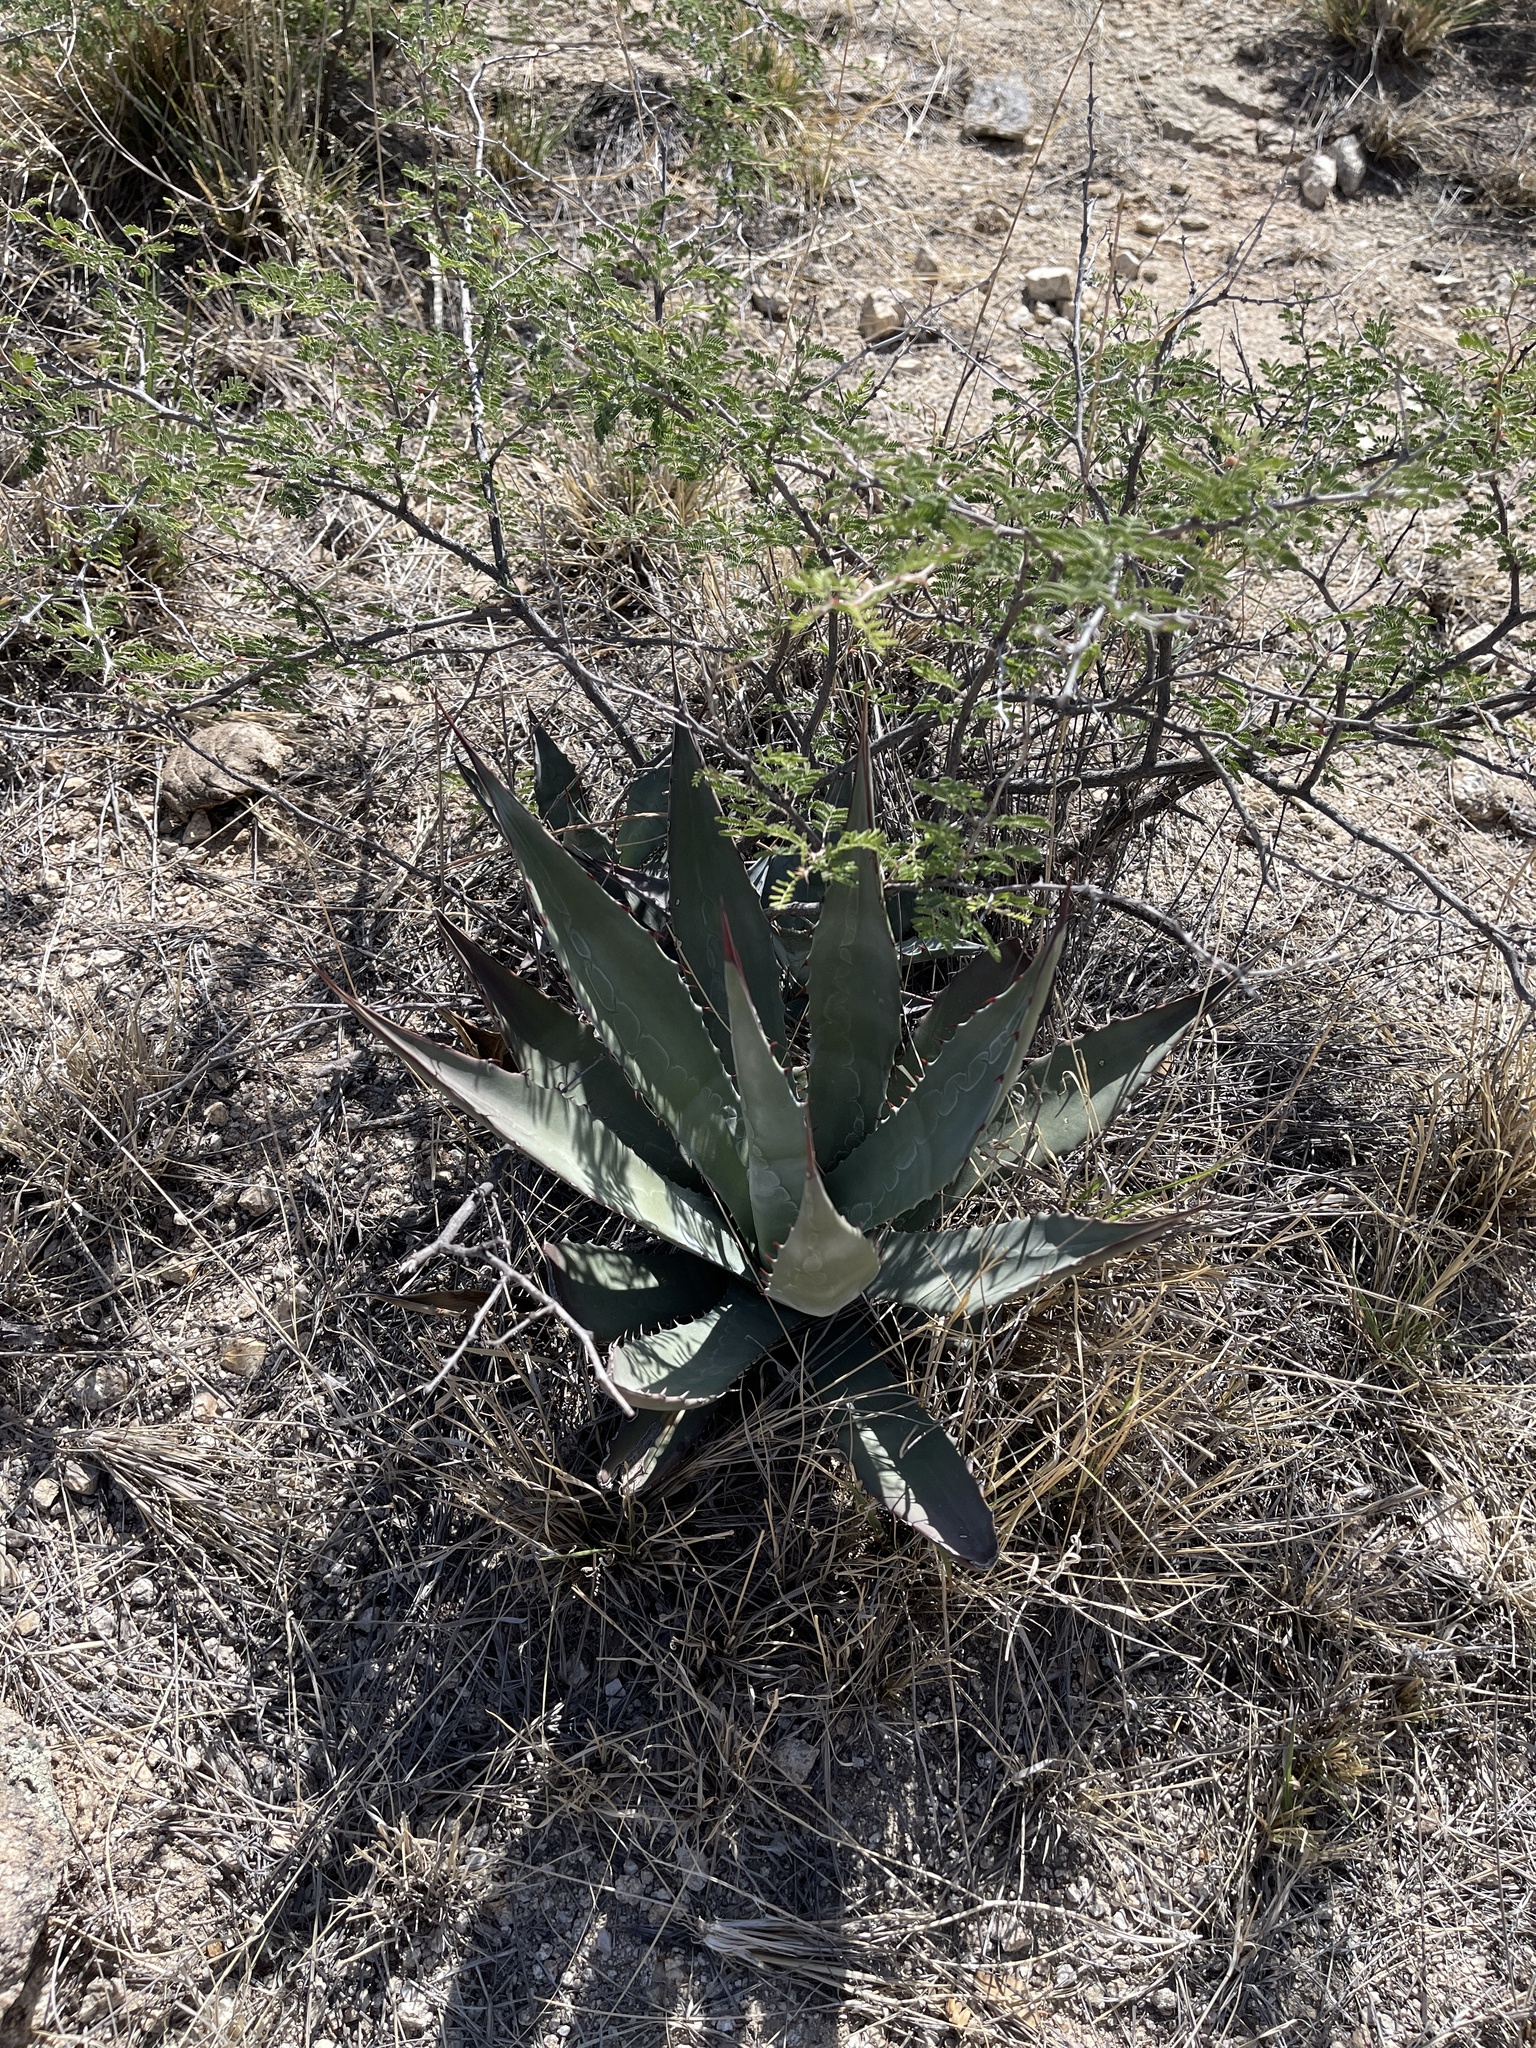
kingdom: Plantae
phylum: Tracheophyta
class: Liliopsida
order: Asparagales
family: Asparagaceae
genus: Agave
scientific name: Agave palmeri
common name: Palmer agave
